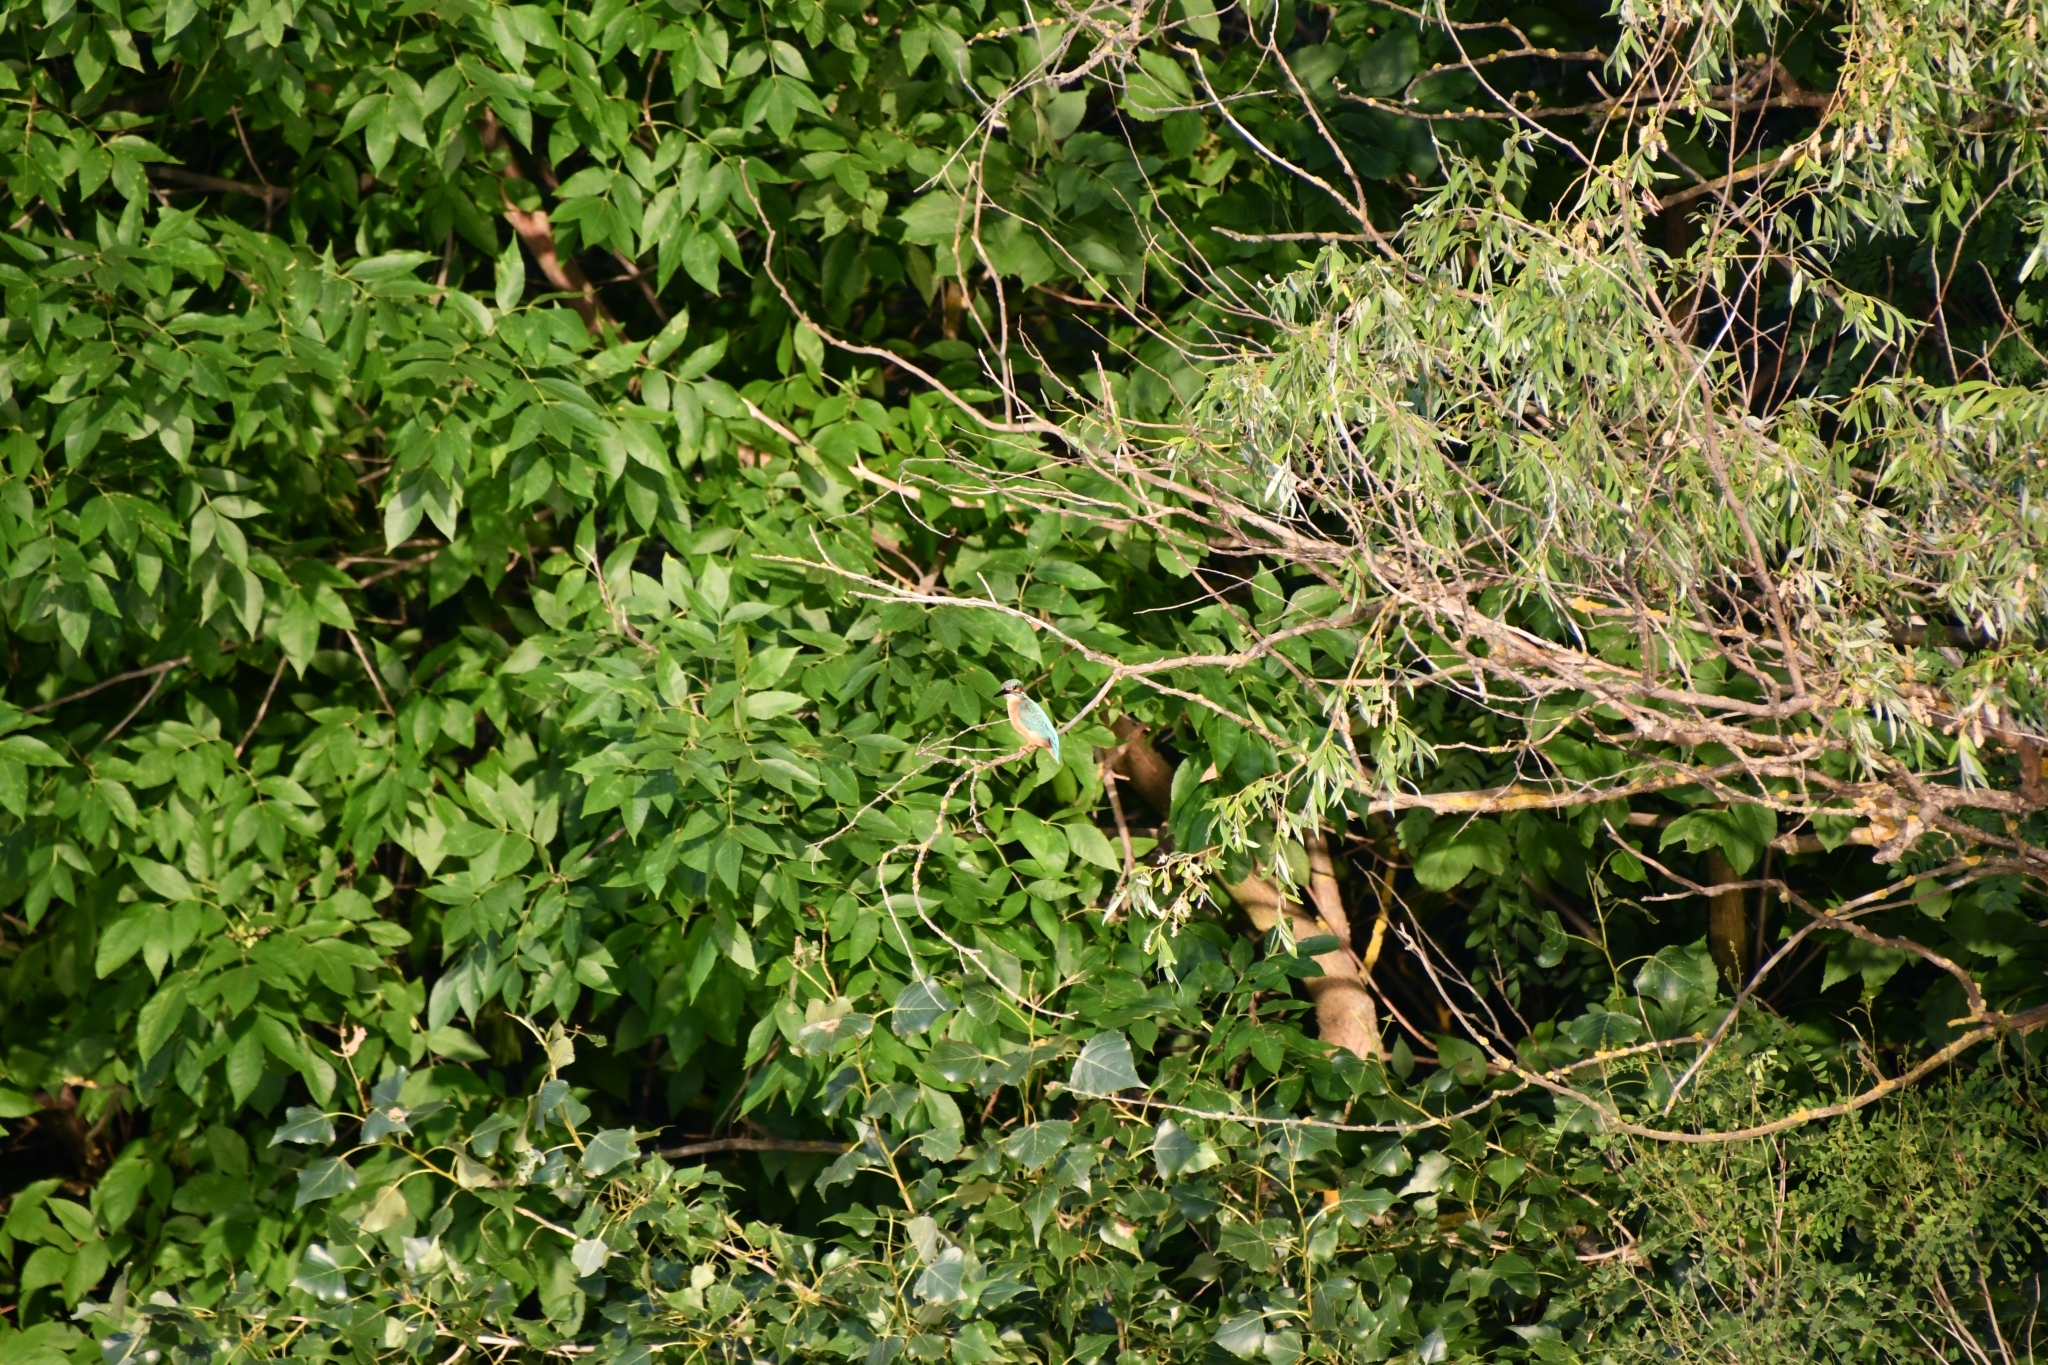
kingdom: Animalia
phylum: Chordata
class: Aves
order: Coraciiformes
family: Alcedinidae
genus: Alcedo
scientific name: Alcedo atthis
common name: Common kingfisher
